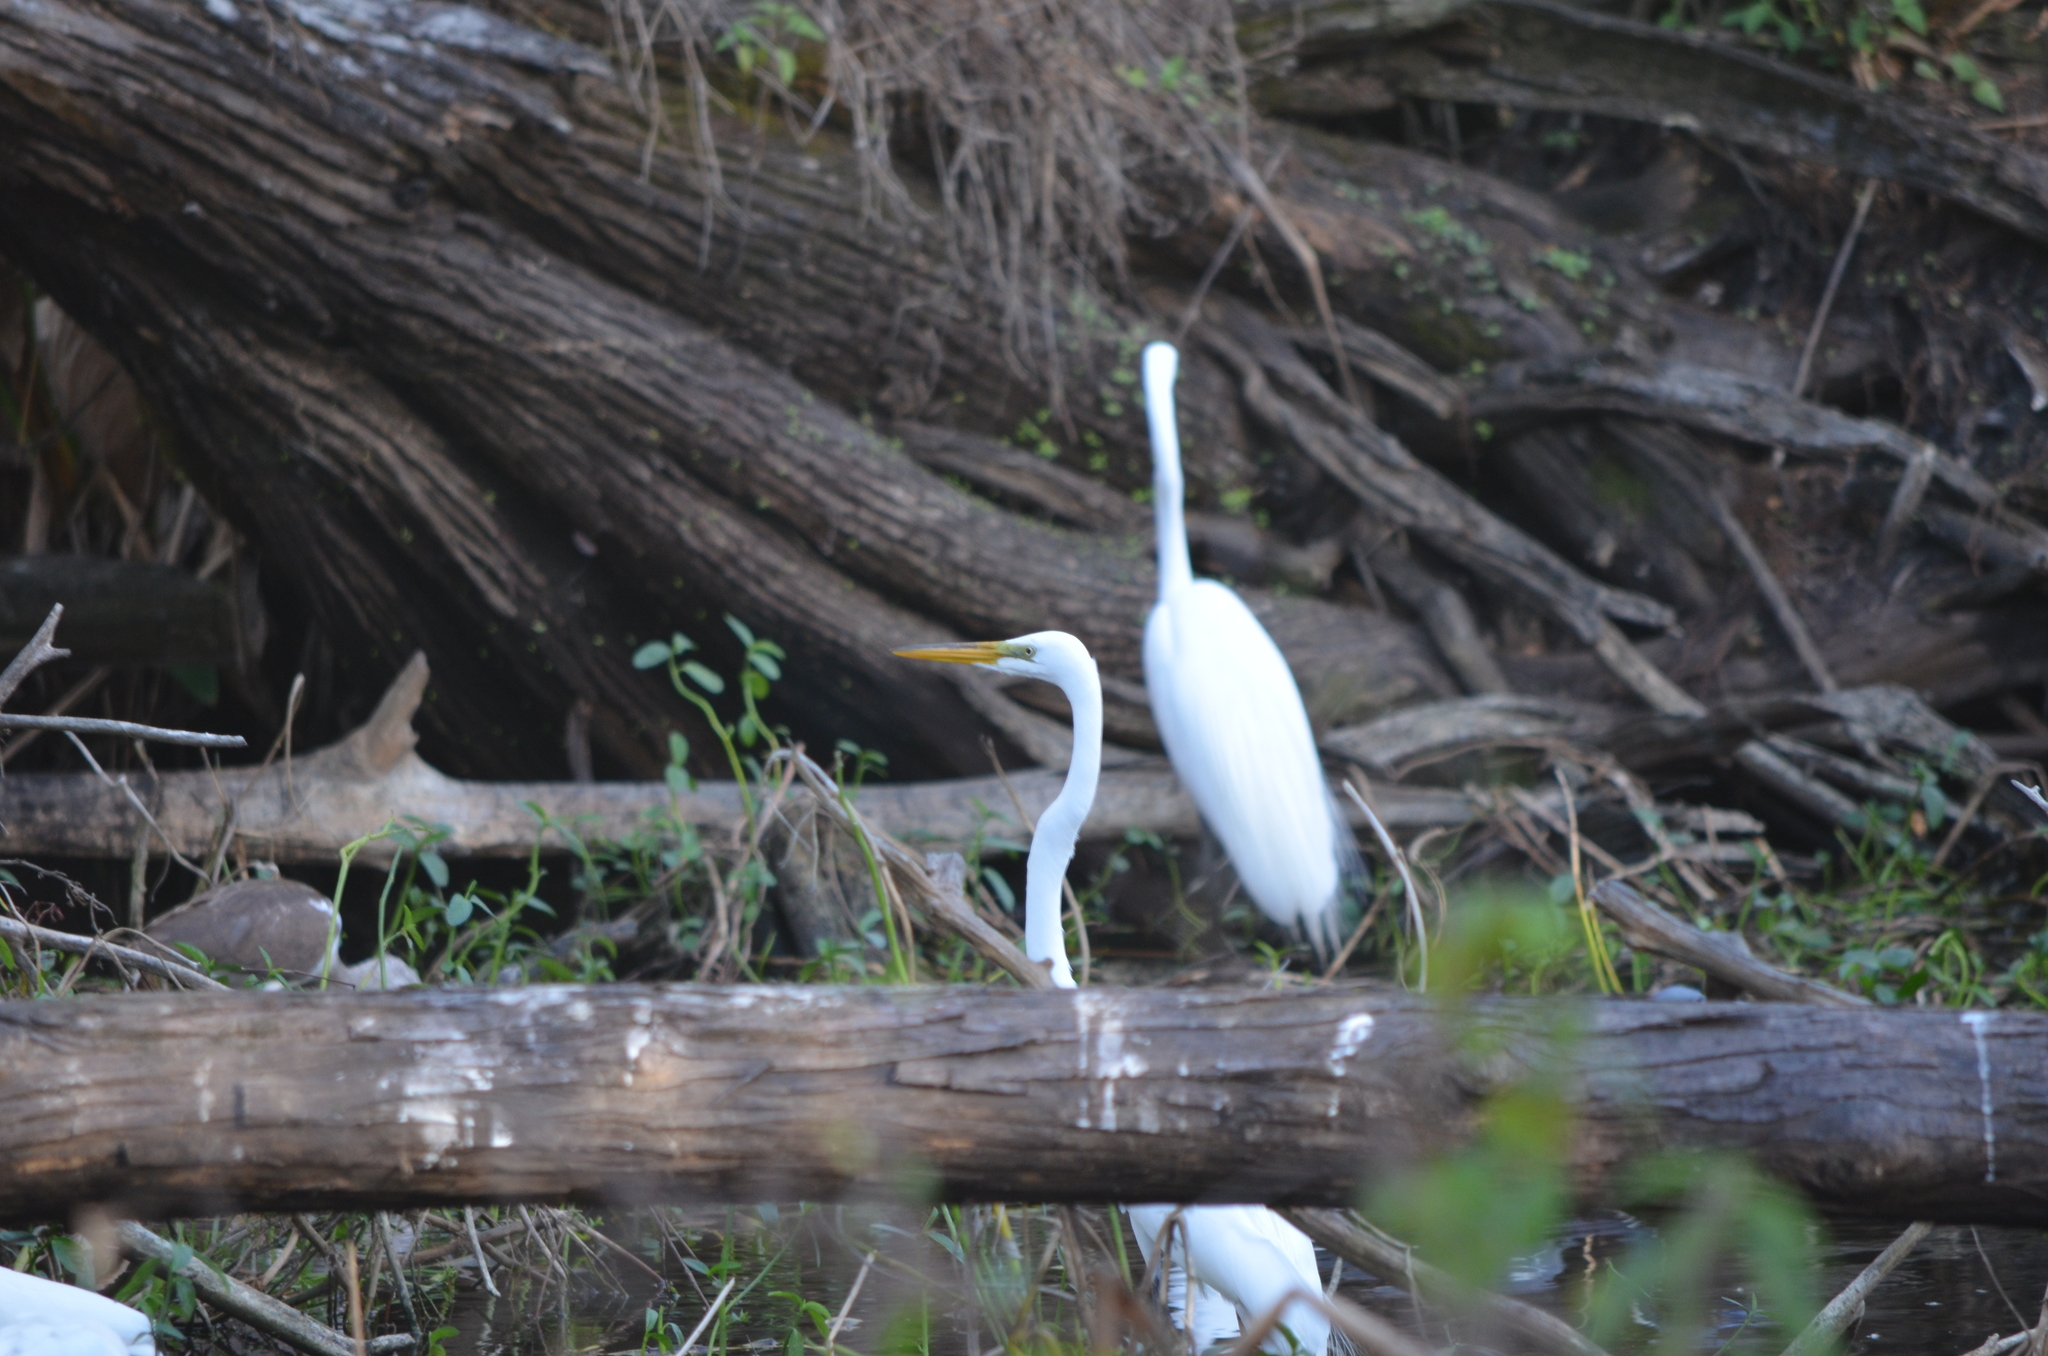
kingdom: Animalia
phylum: Chordata
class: Aves
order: Pelecaniformes
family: Ardeidae
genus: Ardea
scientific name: Ardea alba
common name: Great egret
